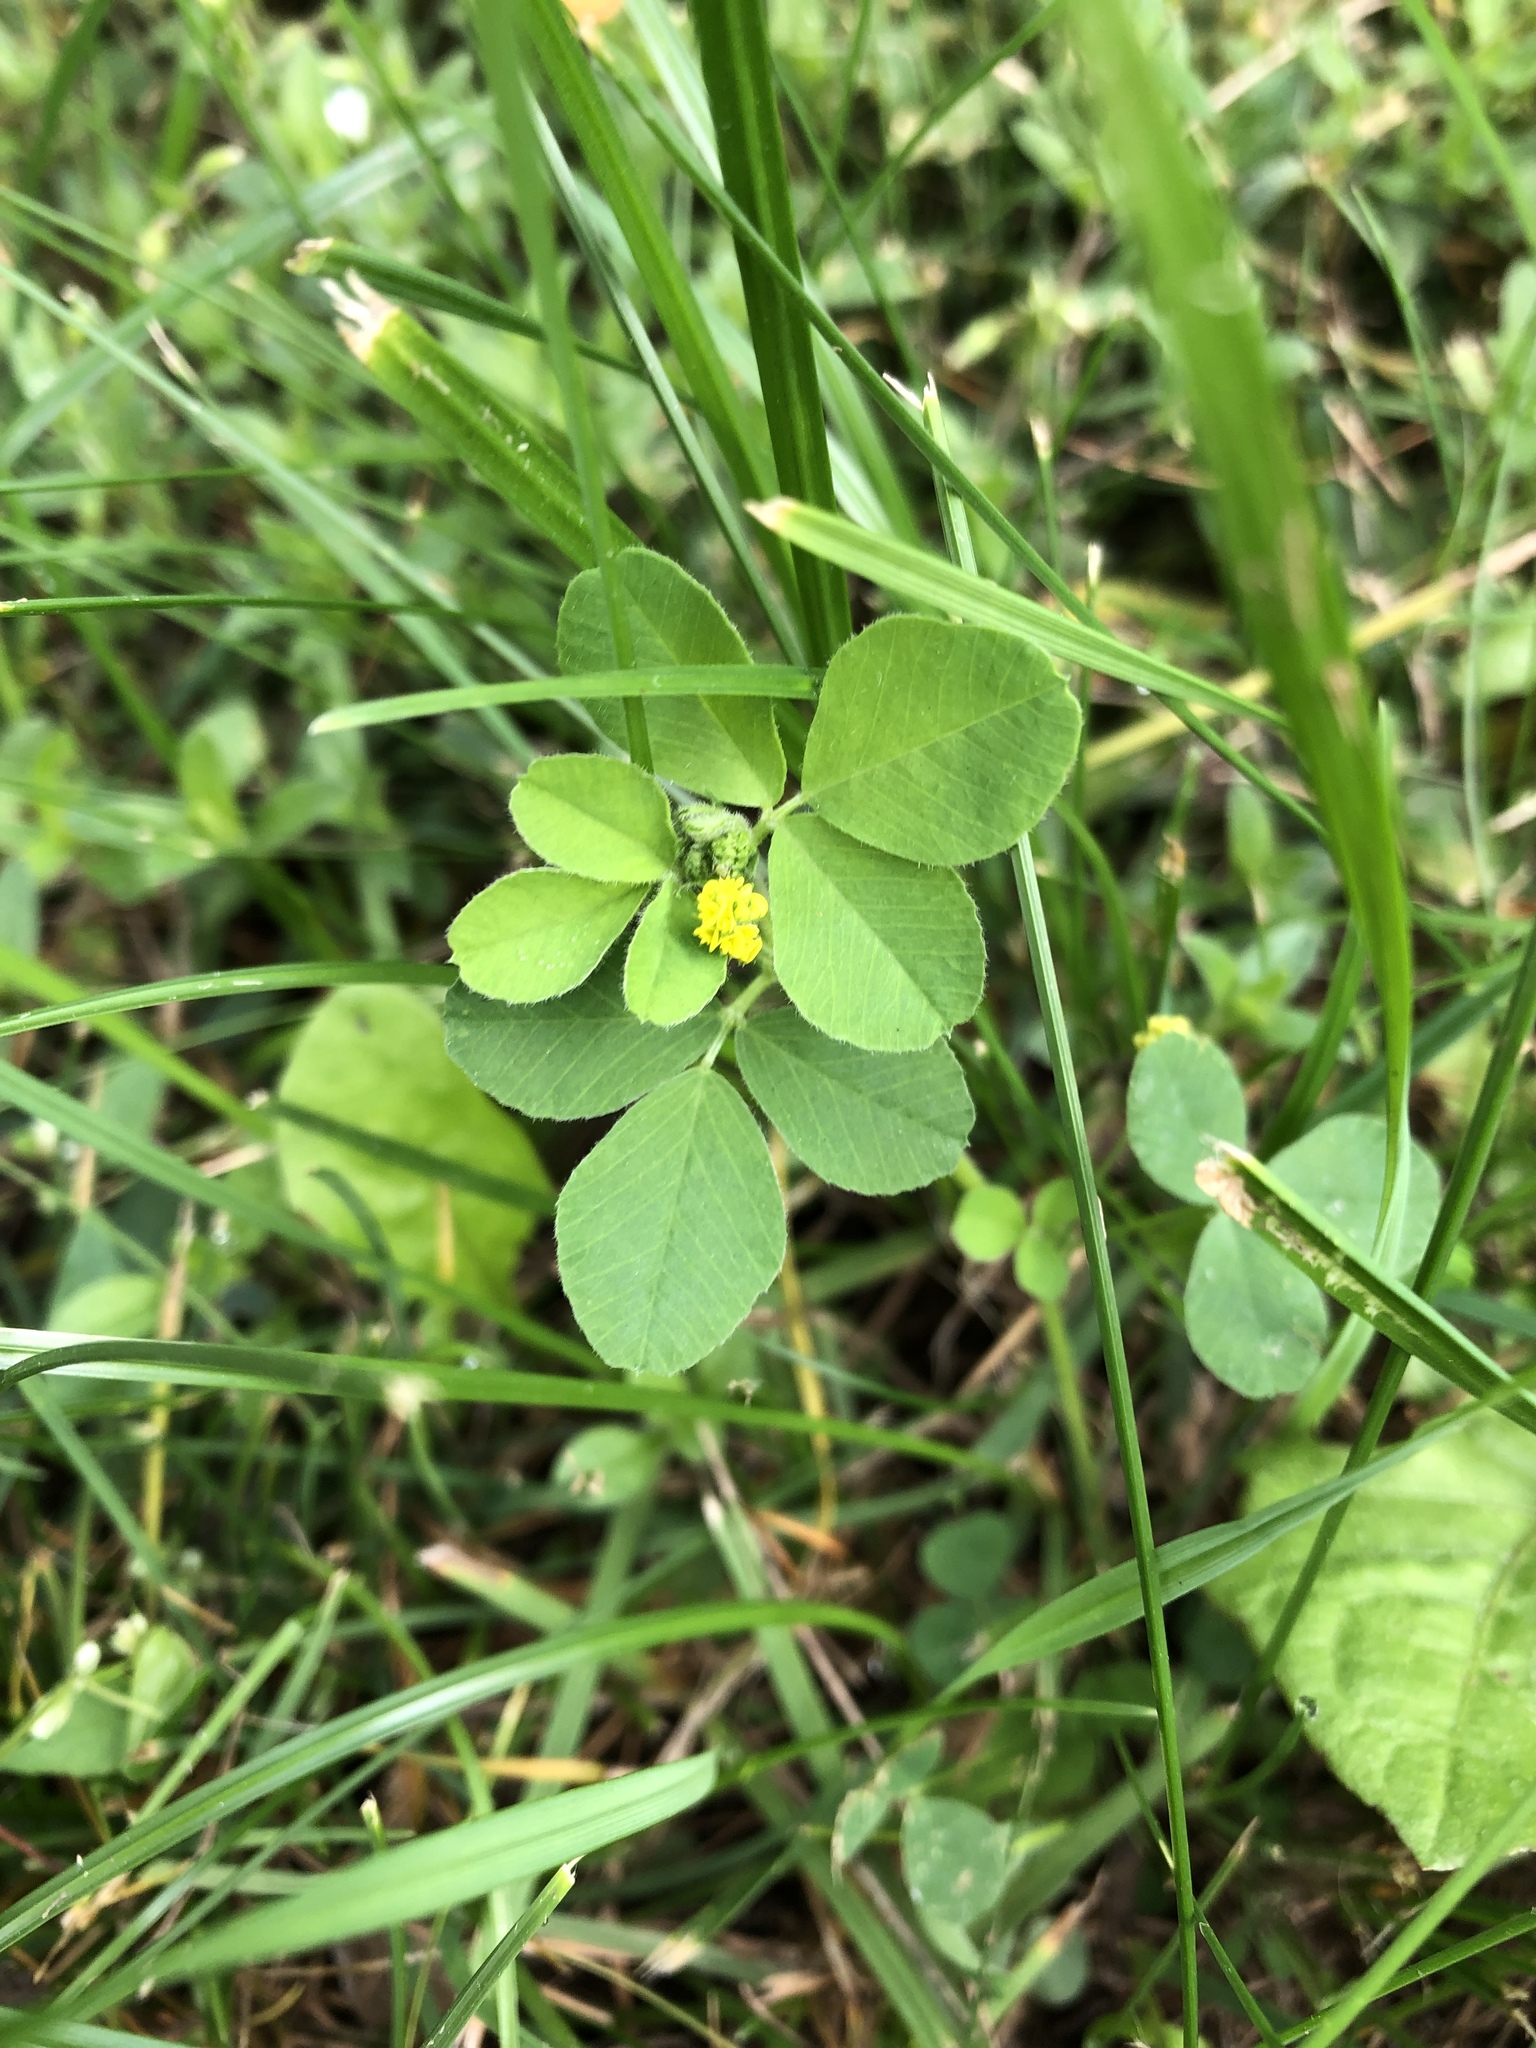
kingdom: Plantae
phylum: Tracheophyta
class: Magnoliopsida
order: Fabales
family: Fabaceae
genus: Medicago
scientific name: Medicago lupulina
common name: Black medick
